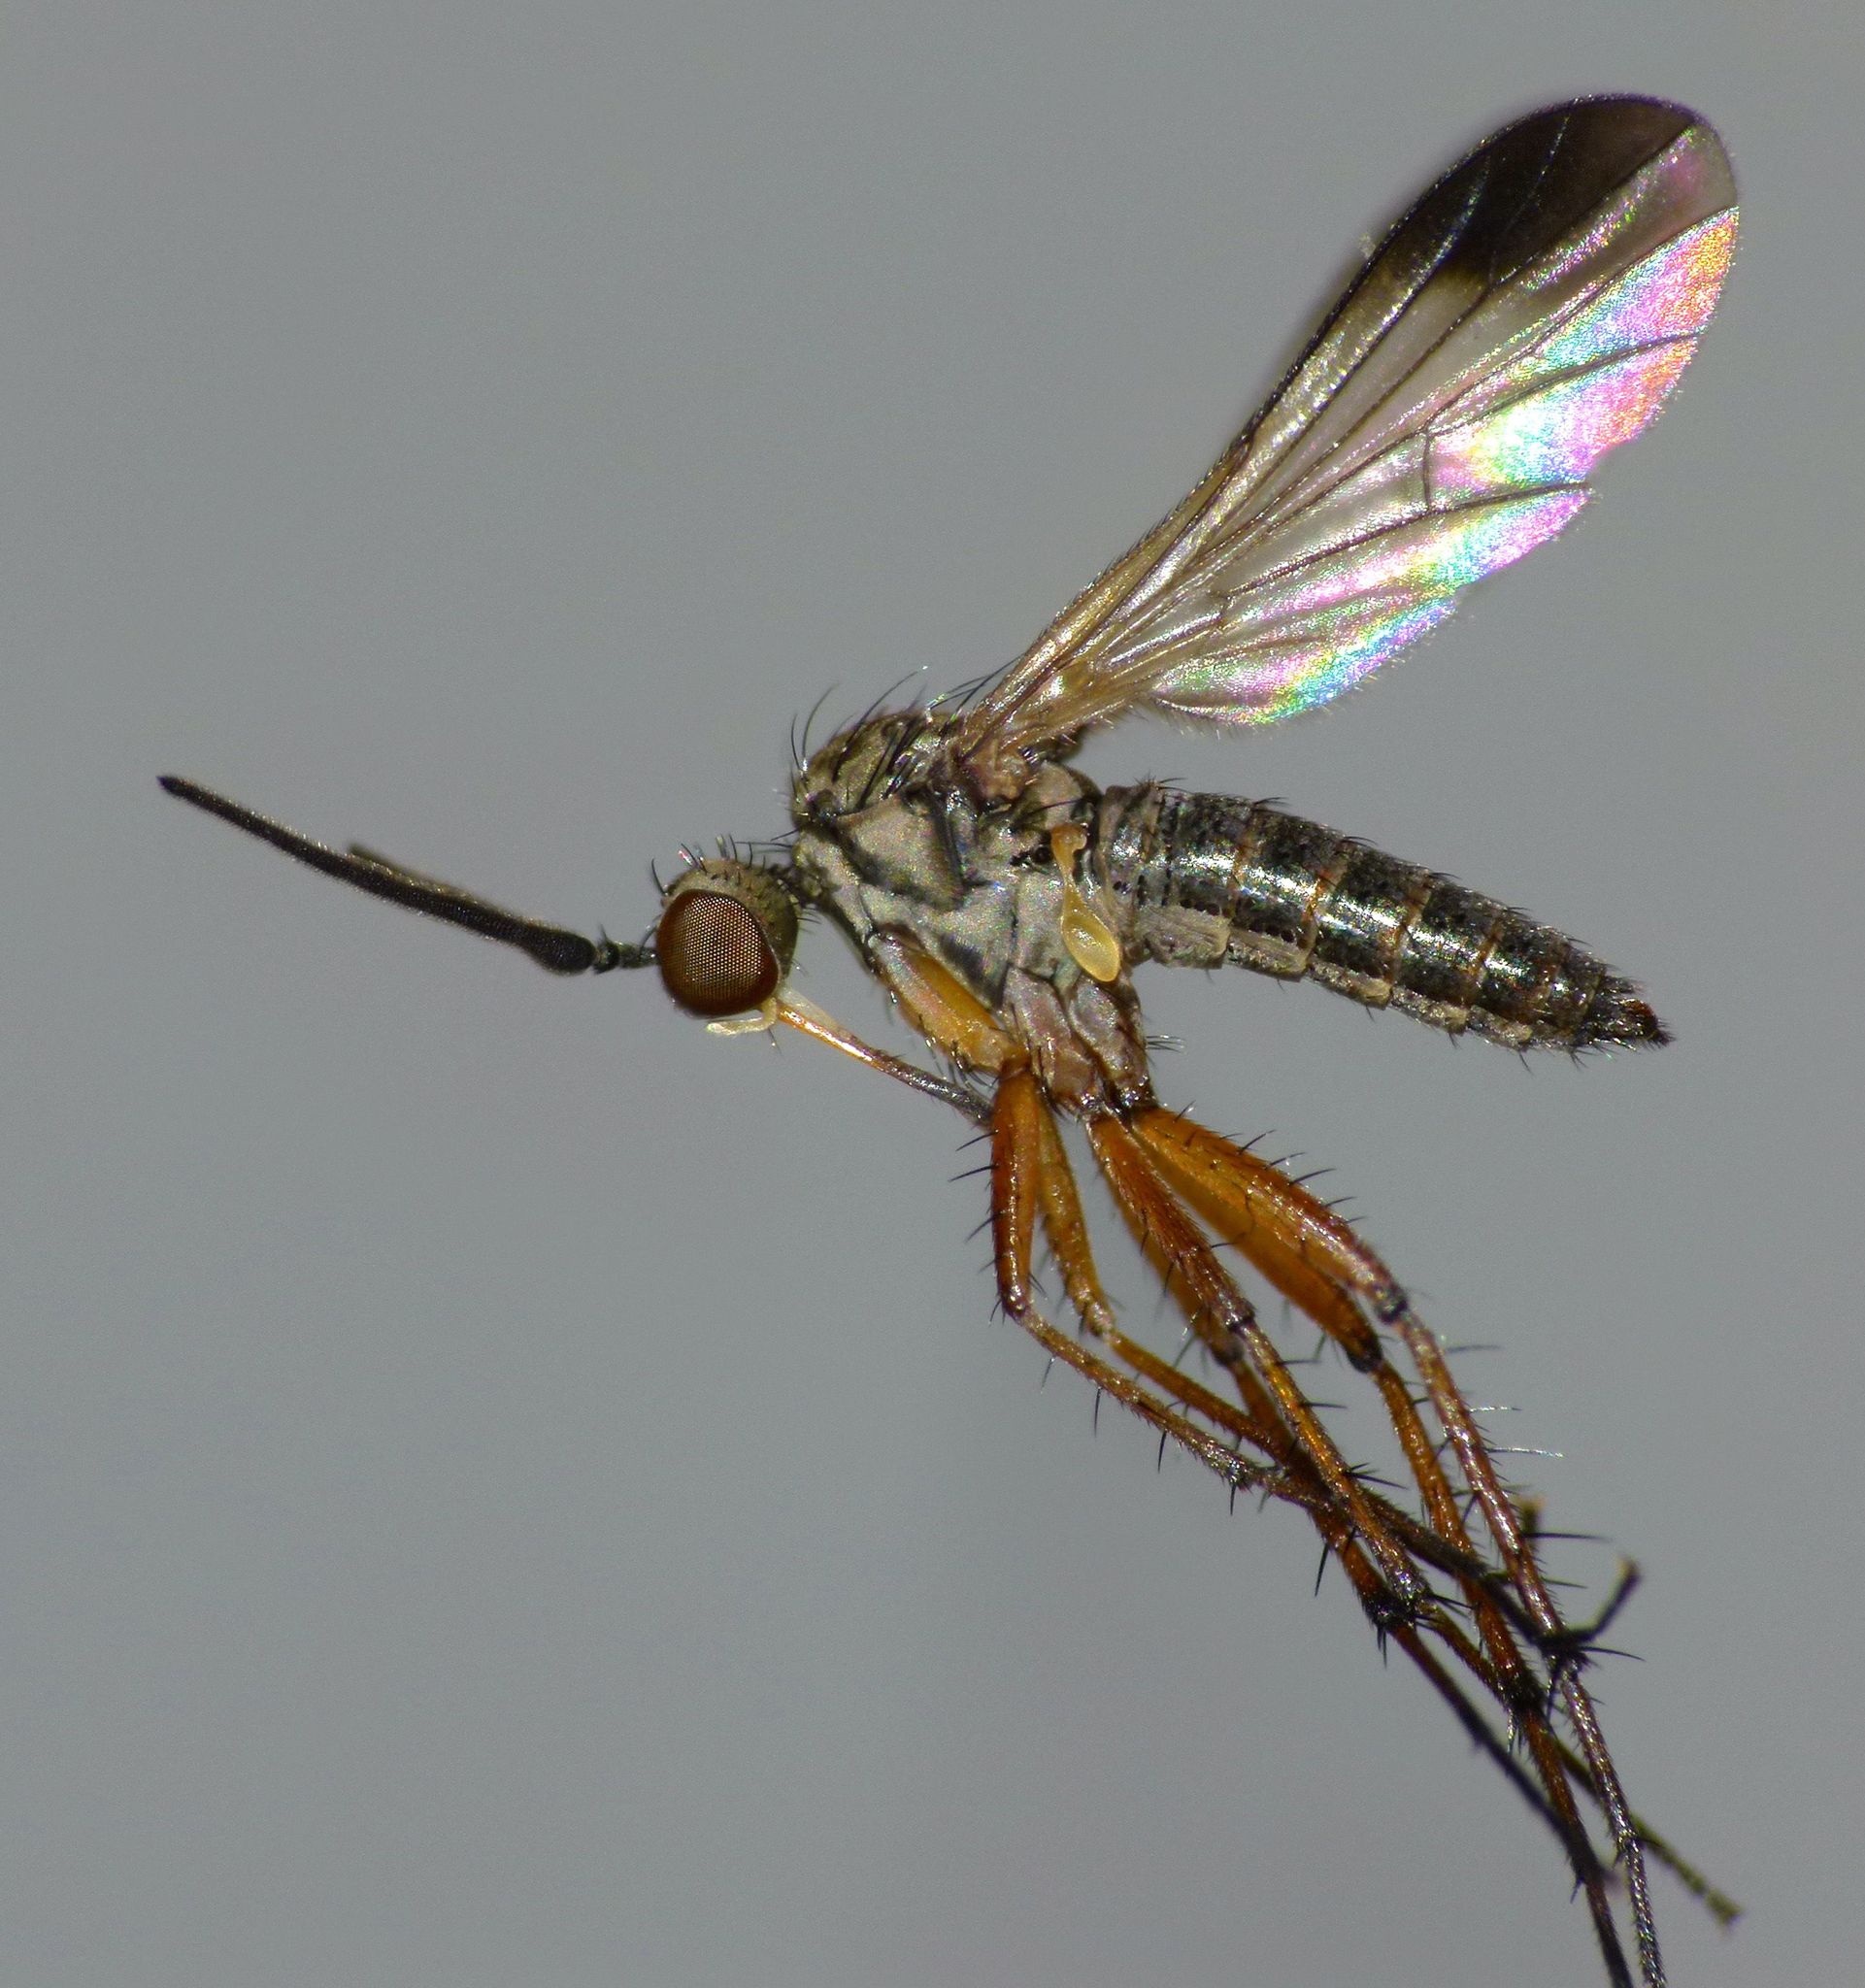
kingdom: Animalia
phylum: Arthropoda
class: Insecta
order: Diptera
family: Empididae
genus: Empidadelpha
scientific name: Empidadelpha pokekeao
